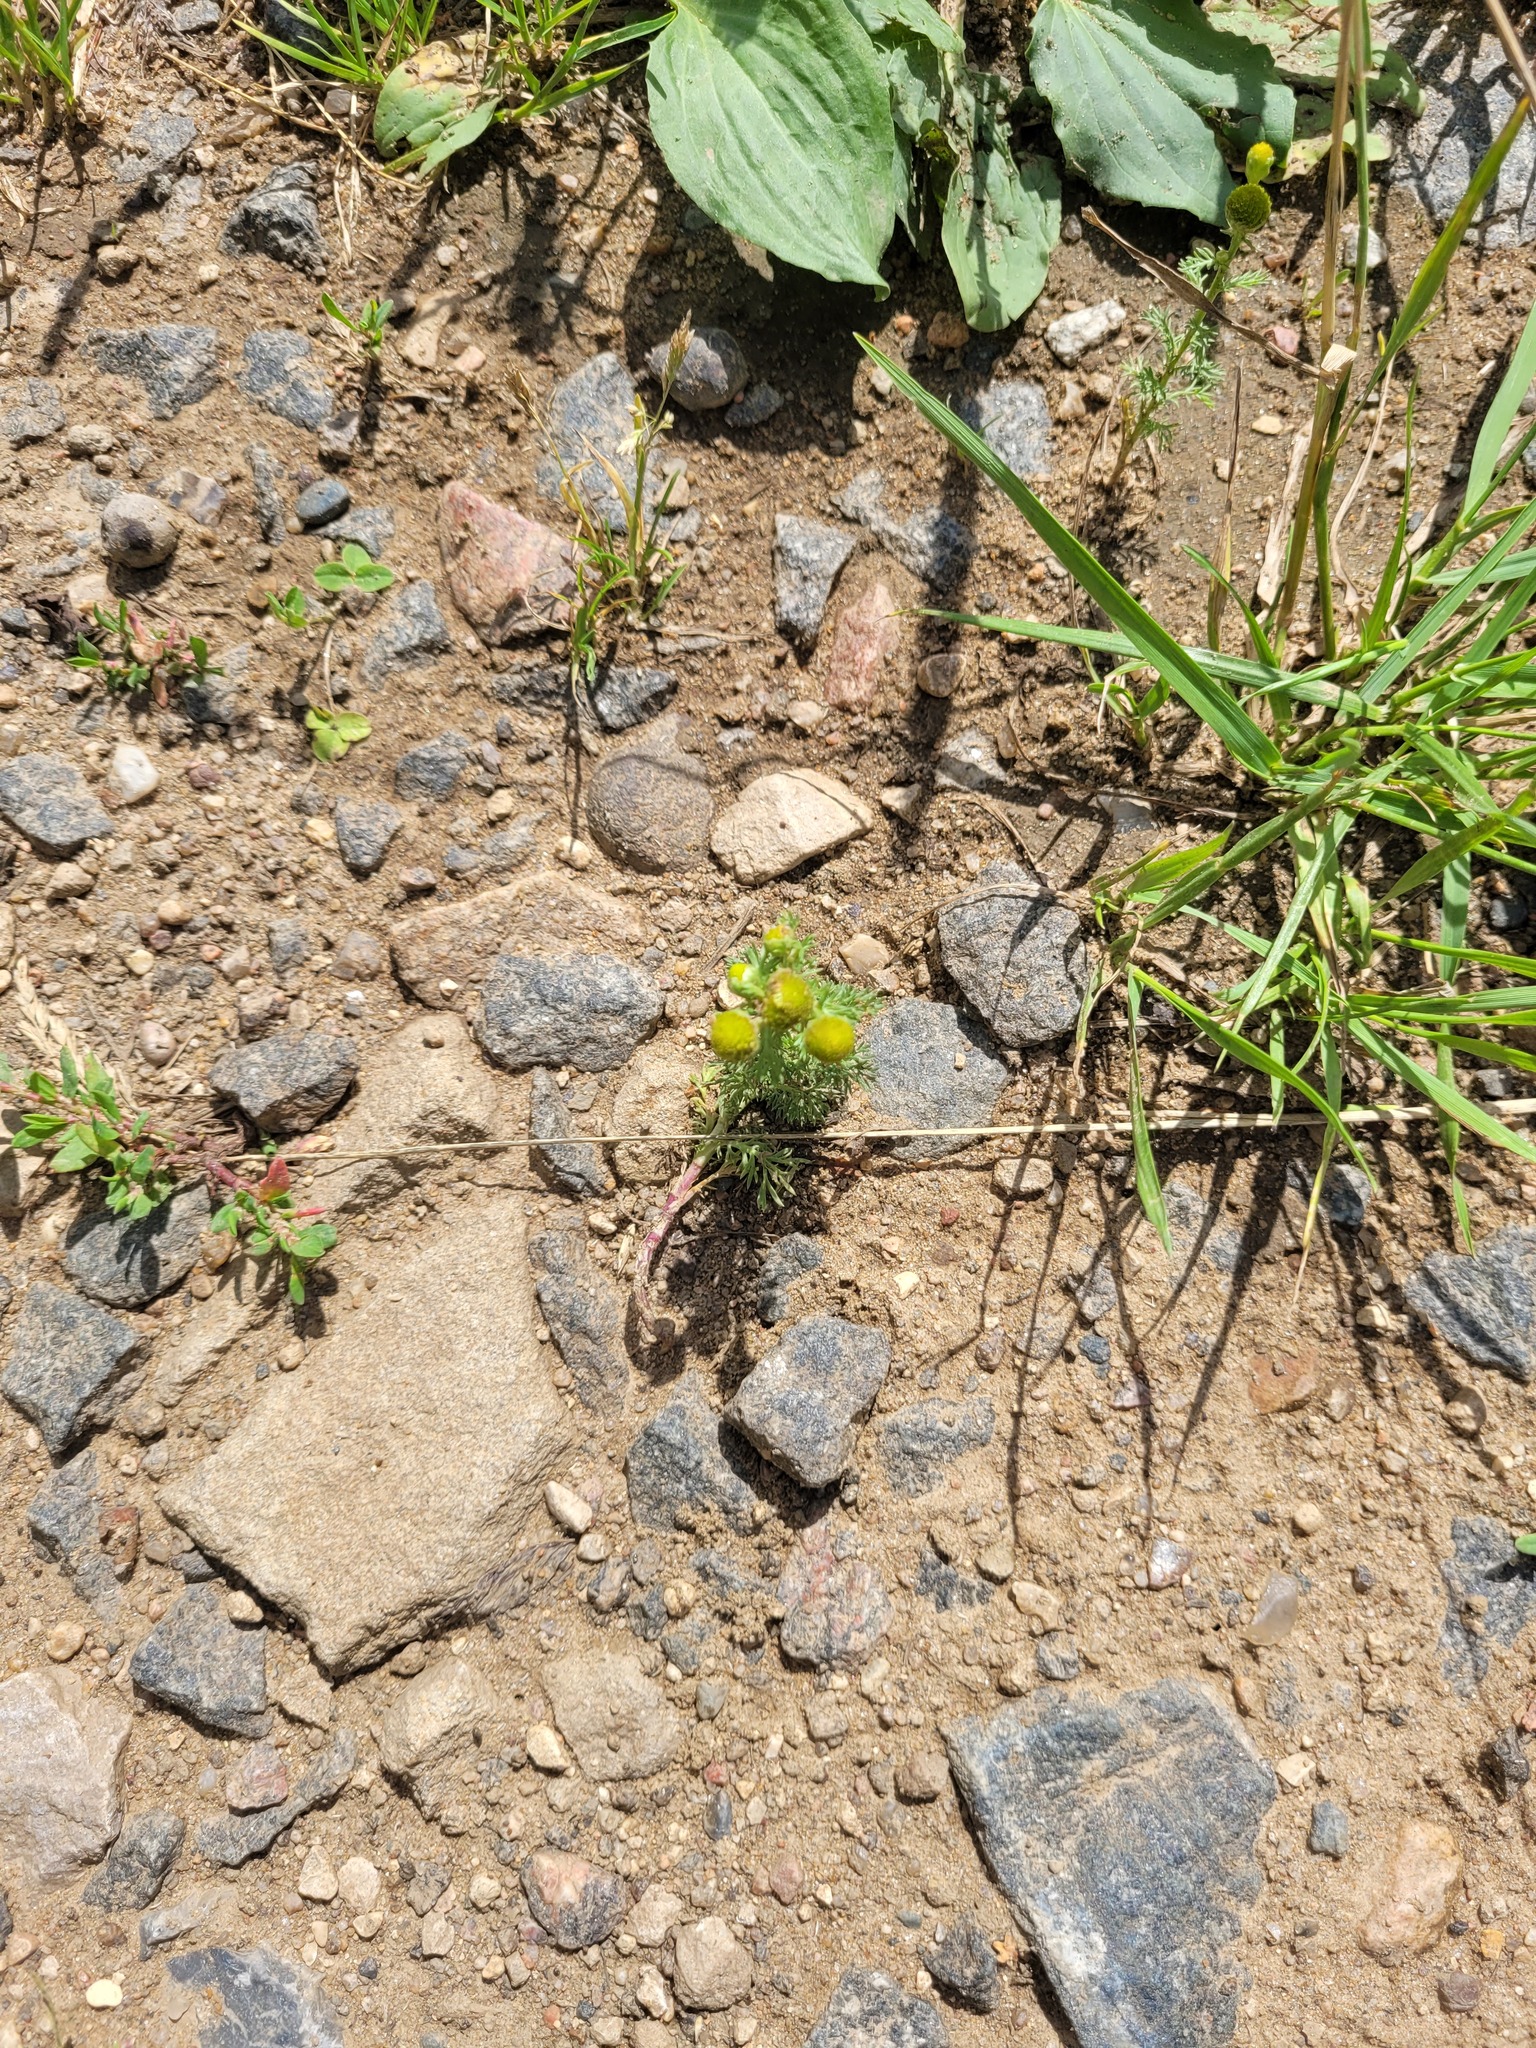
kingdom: Plantae
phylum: Tracheophyta
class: Magnoliopsida
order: Asterales
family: Asteraceae
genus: Matricaria
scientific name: Matricaria discoidea
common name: Disc mayweed
